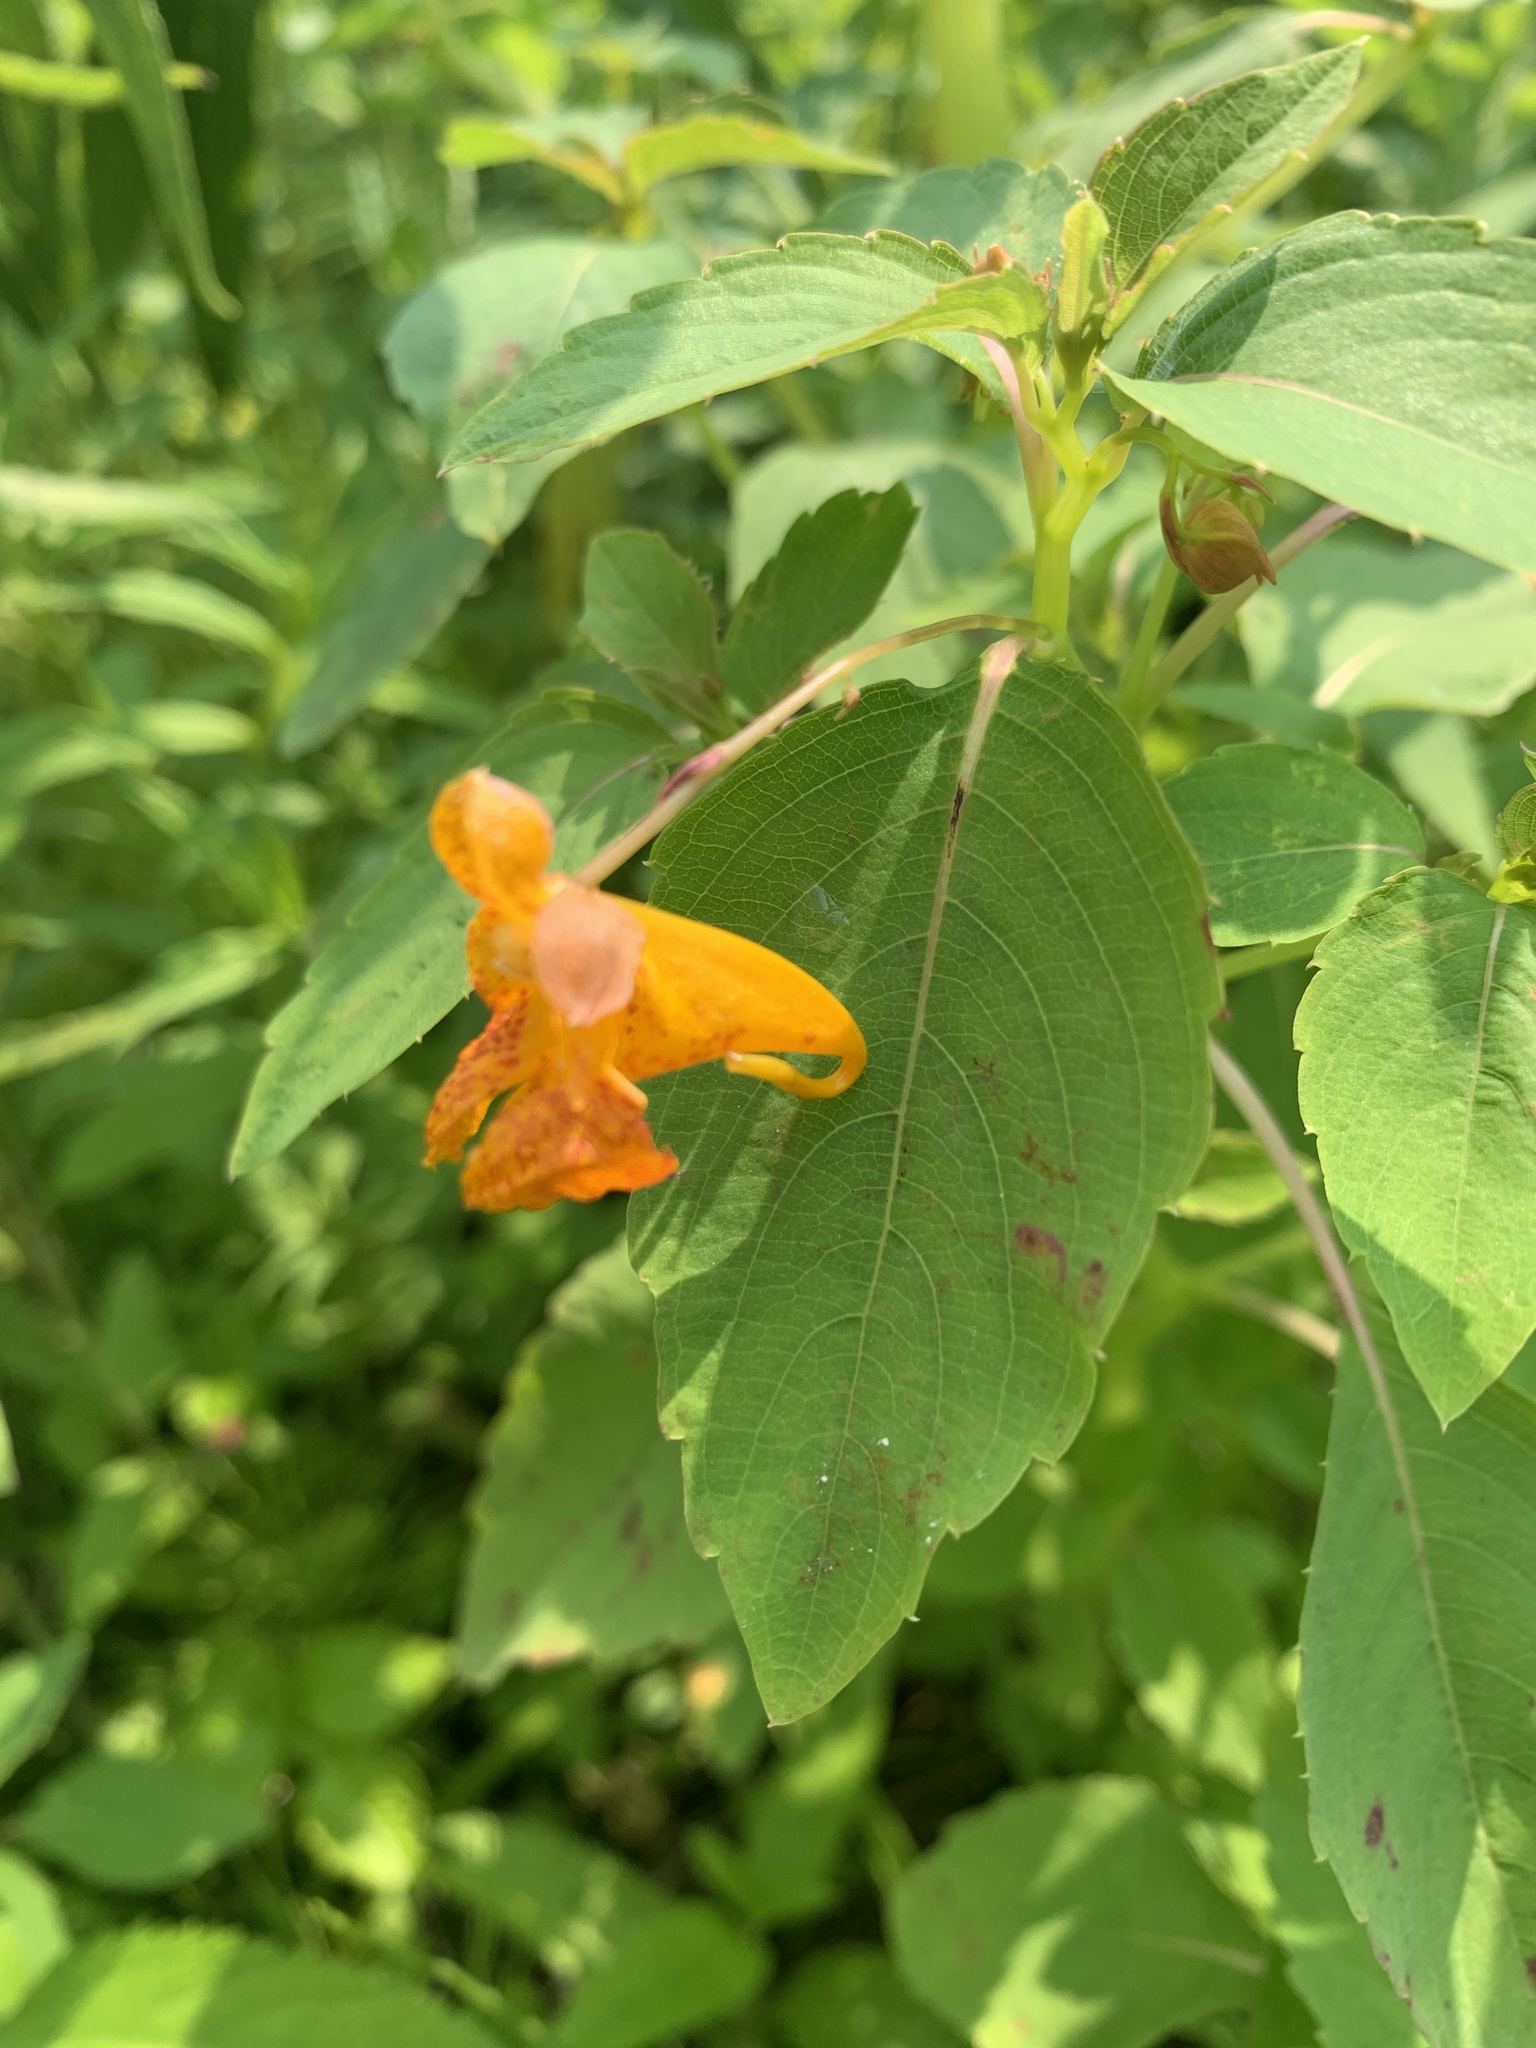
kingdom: Plantae
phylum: Tracheophyta
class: Magnoliopsida
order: Ericales
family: Balsaminaceae
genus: Impatiens
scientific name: Impatiens capensis
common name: Orange balsam
